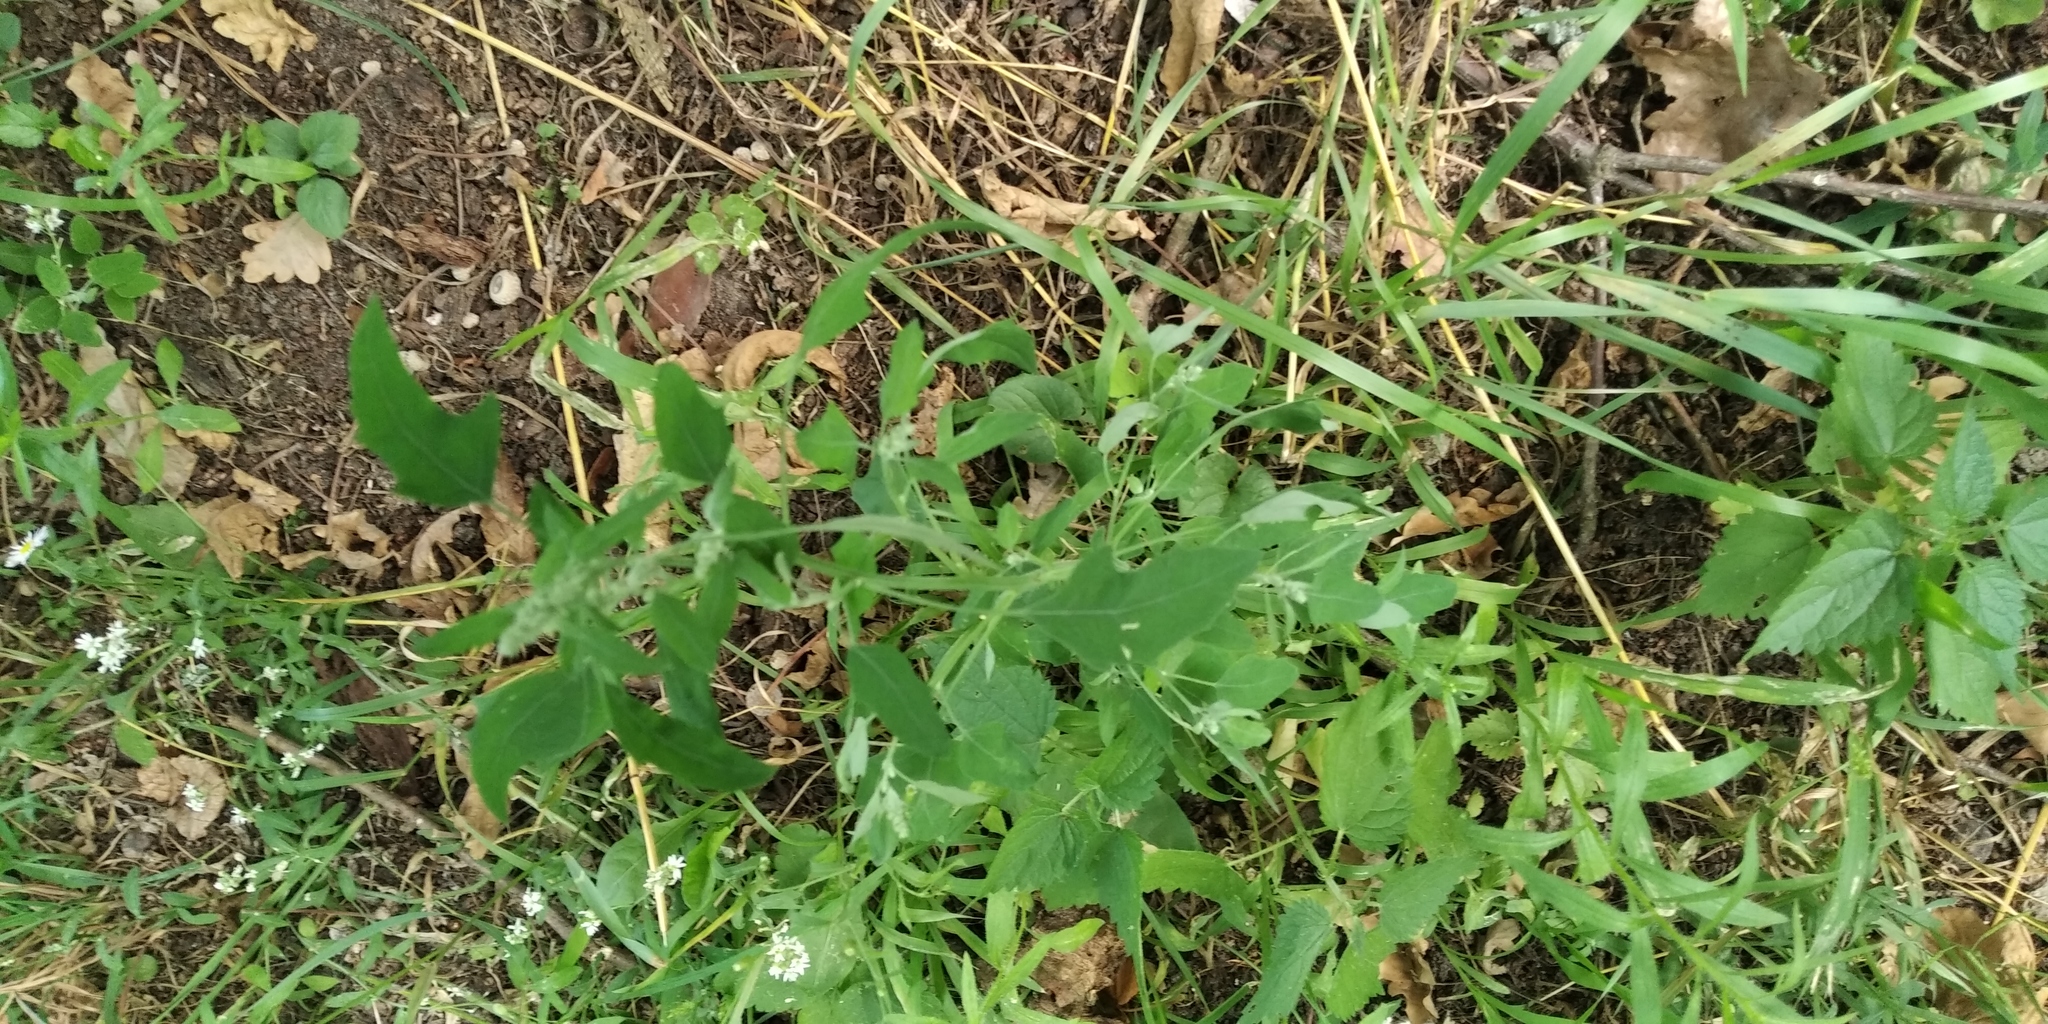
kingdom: Plantae
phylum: Tracheophyta
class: Magnoliopsida
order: Caryophyllales
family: Amaranthaceae
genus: Chenopodium
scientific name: Chenopodium album
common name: Fat-hen
